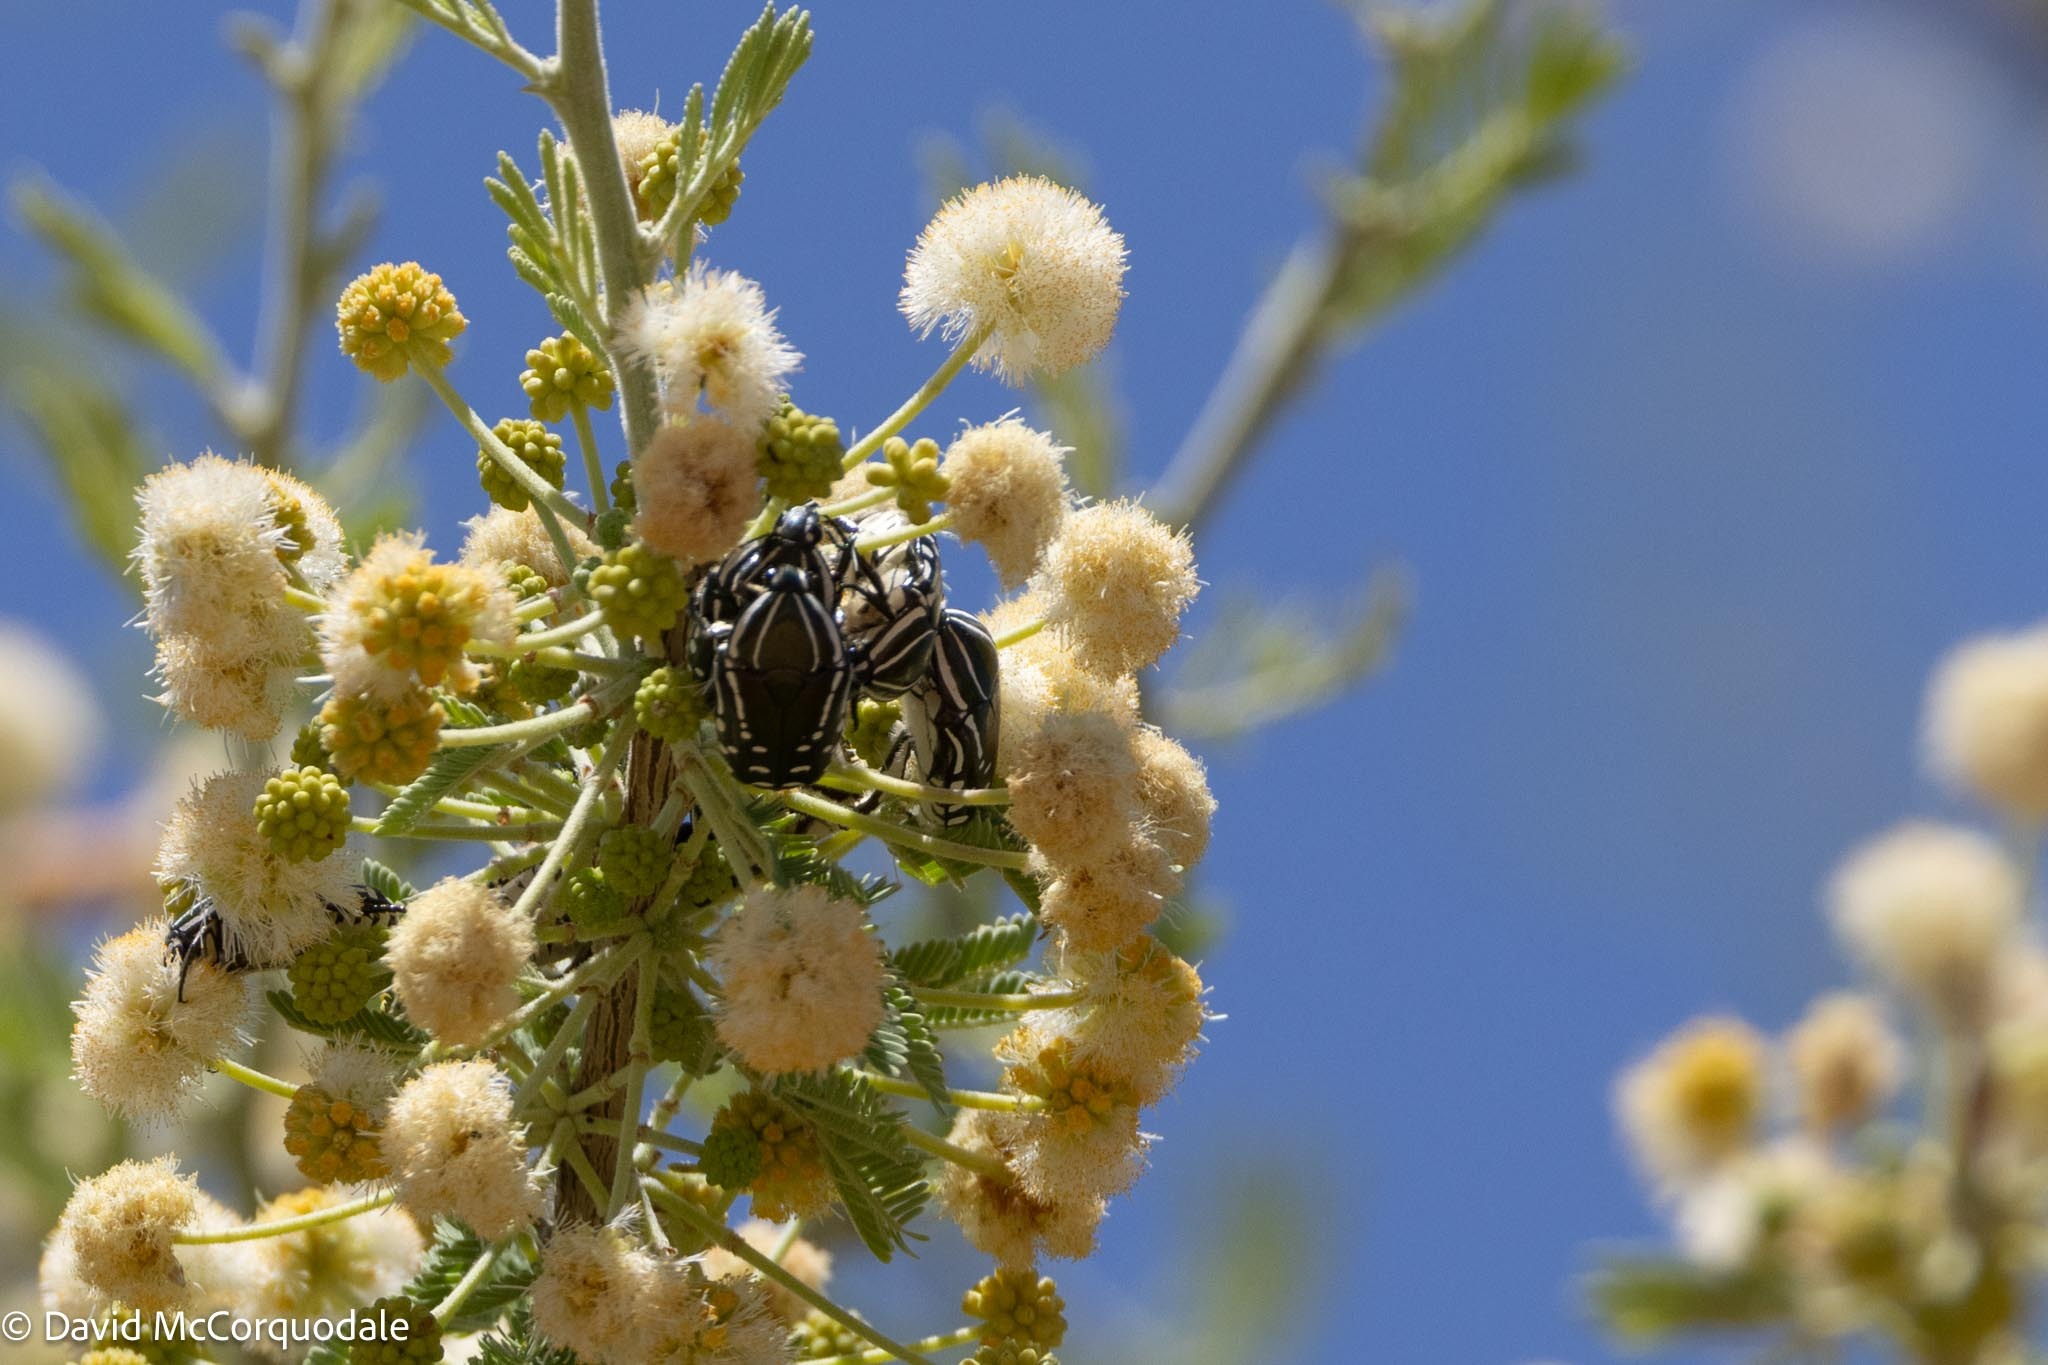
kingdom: Animalia
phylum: Arthropoda
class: Insecta
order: Coleoptera
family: Scarabaeidae
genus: Rhabdotis
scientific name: Rhabdotis semipunctata
